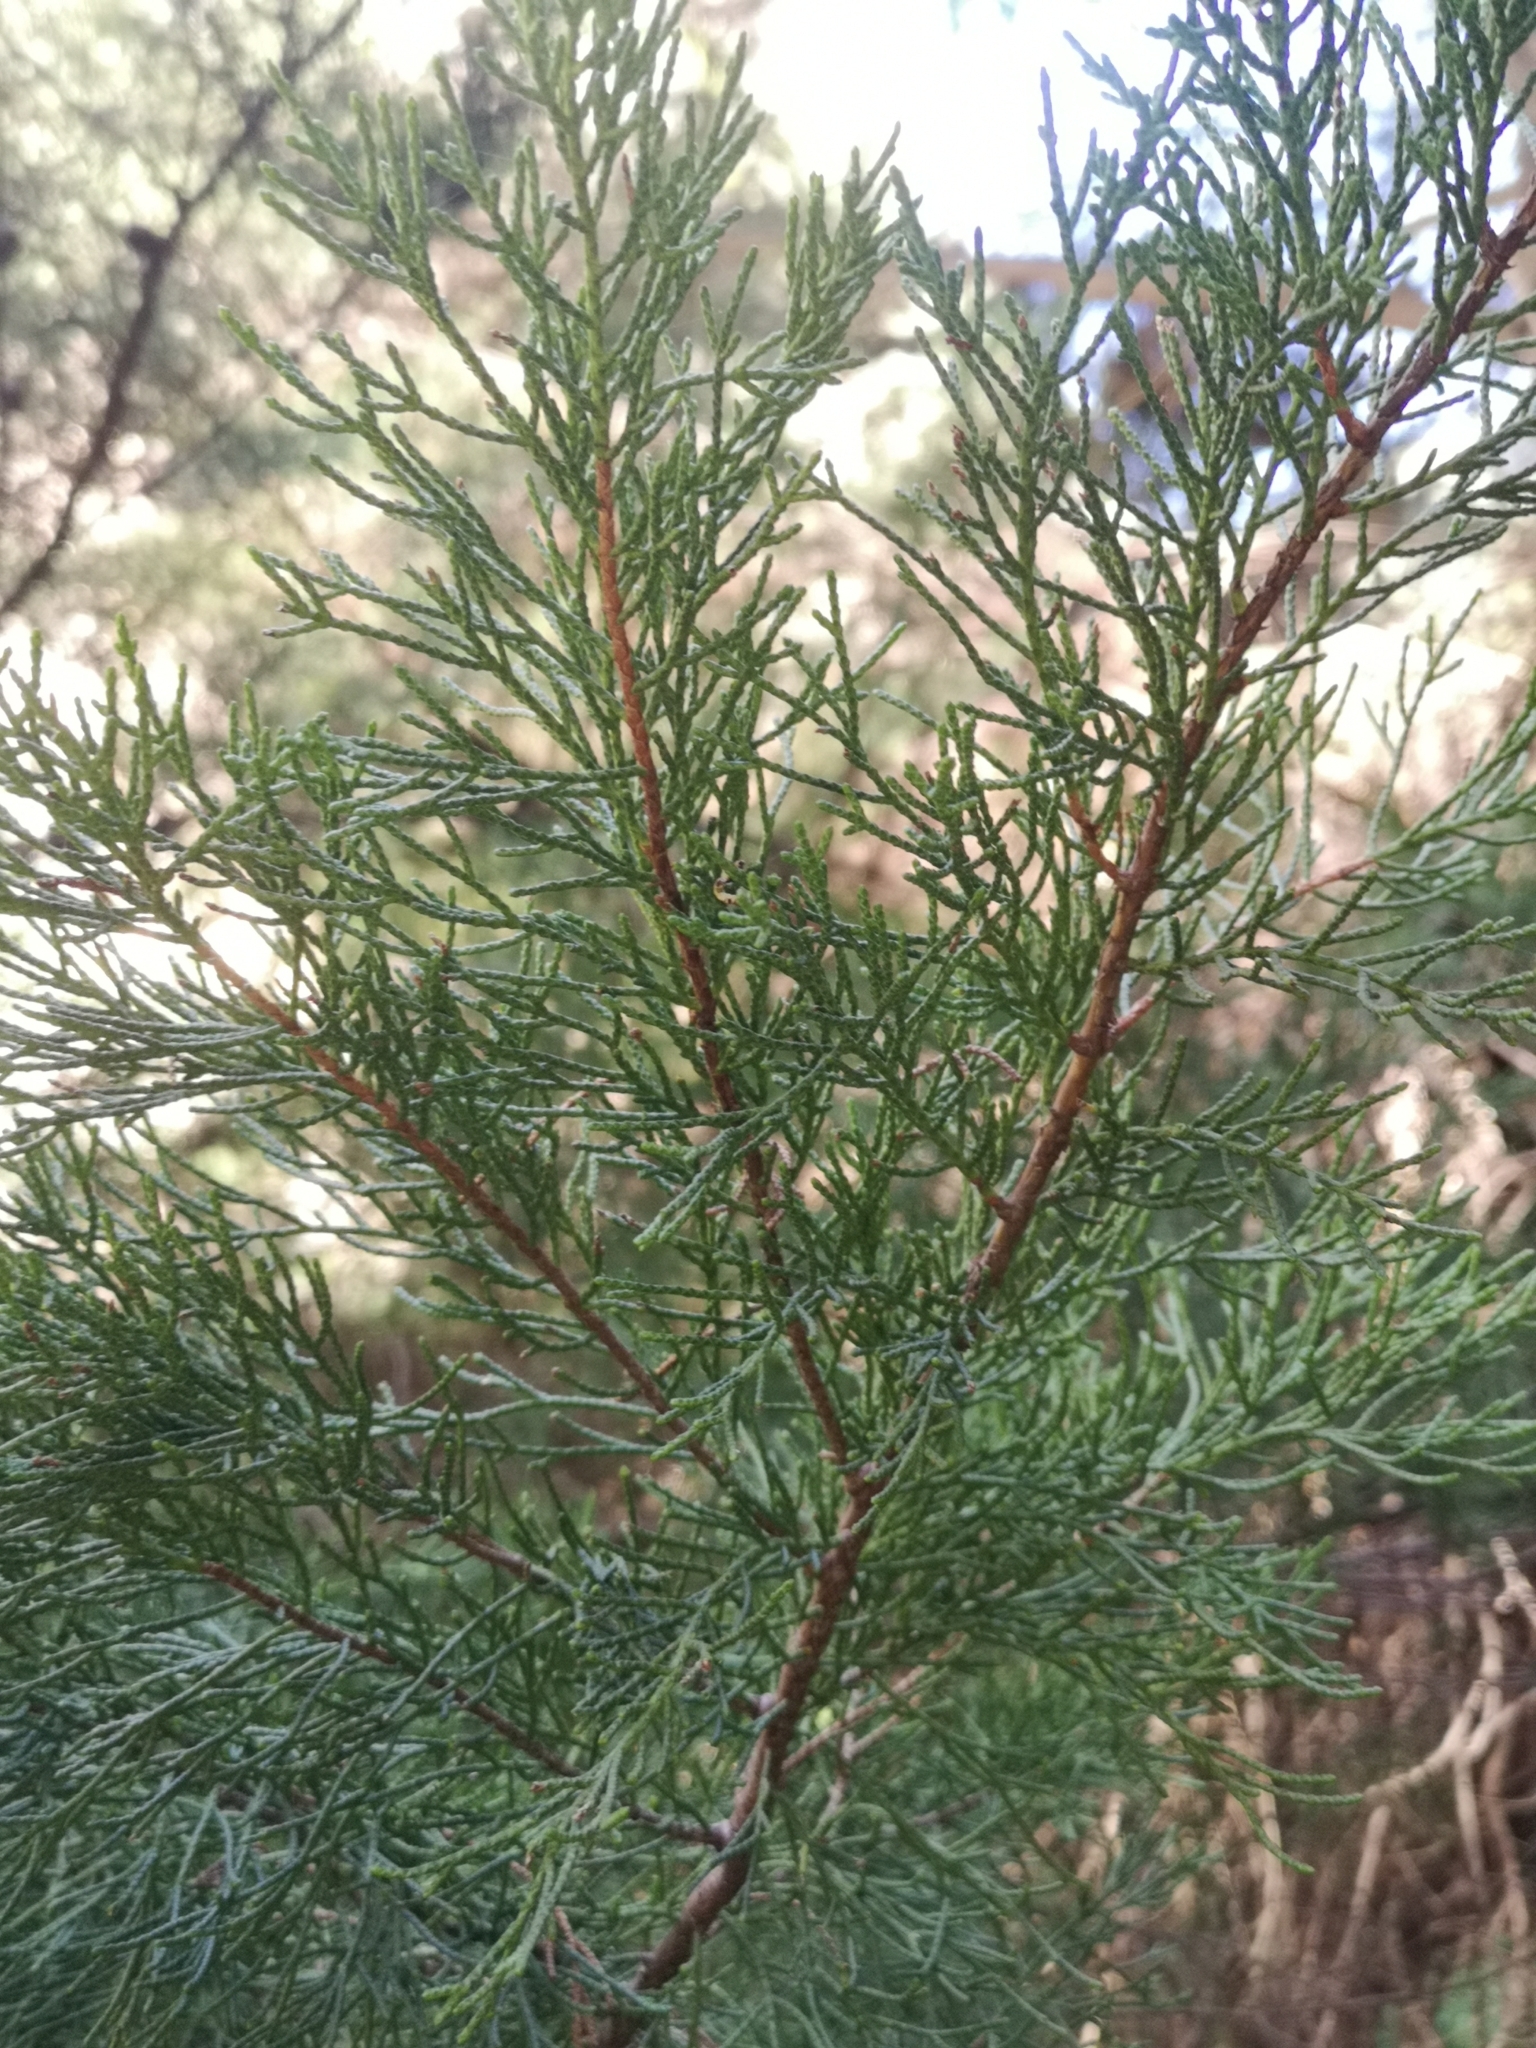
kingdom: Plantae
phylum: Tracheophyta
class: Pinopsida
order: Pinales
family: Cupressaceae
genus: Juniperus
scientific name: Juniperus canariensis
